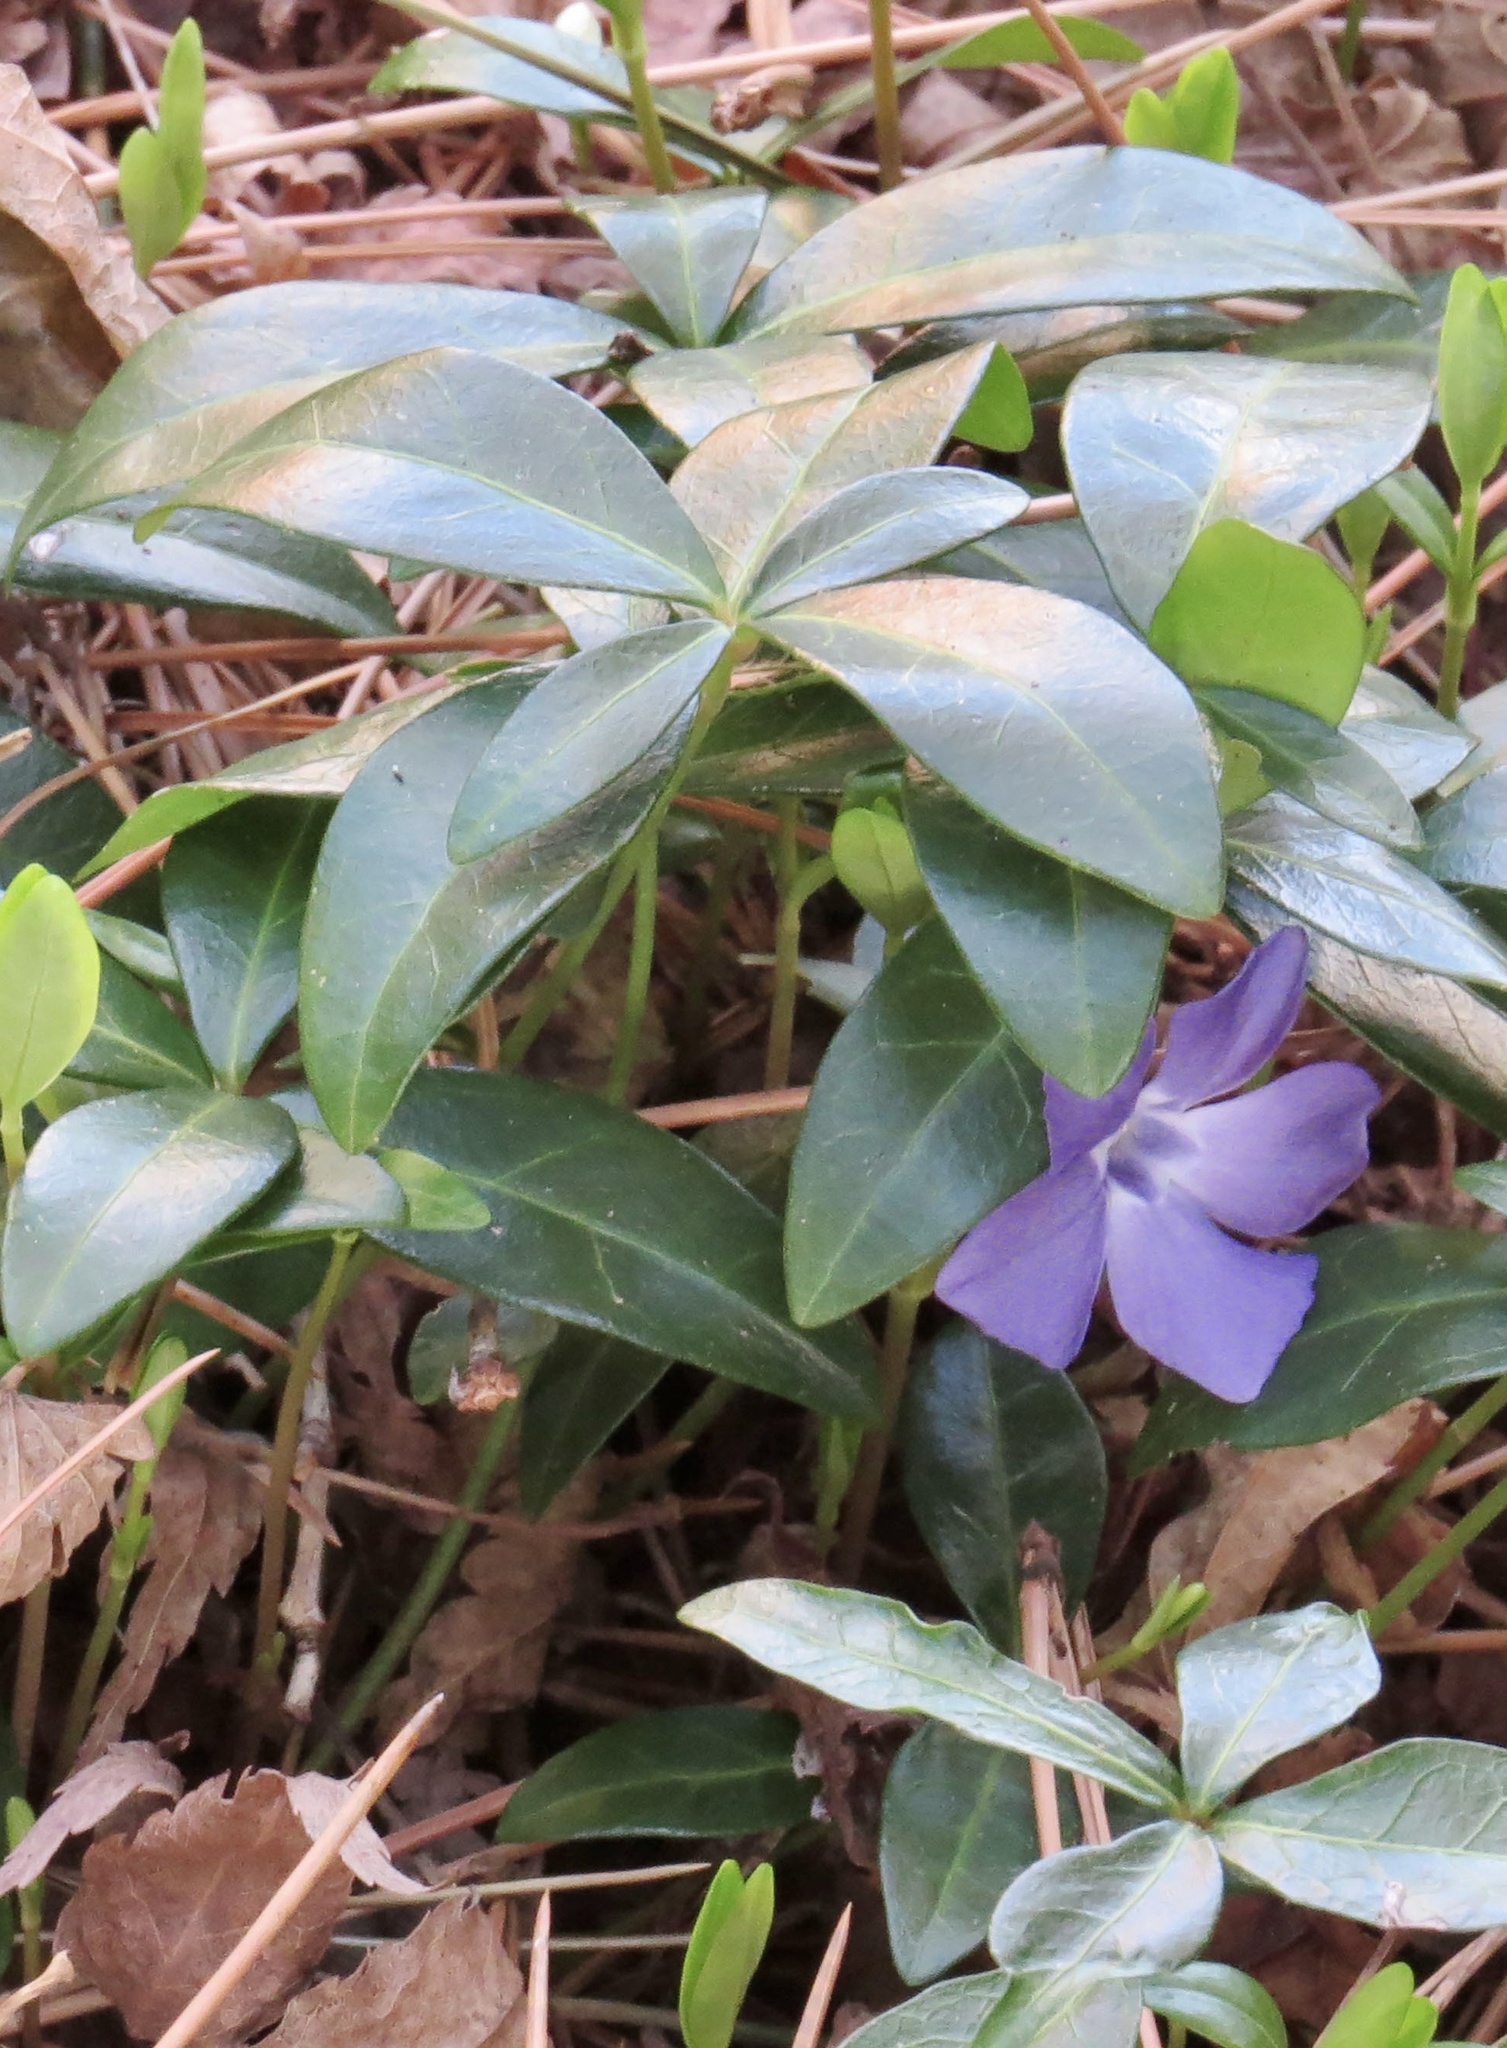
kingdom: Plantae
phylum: Tracheophyta
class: Magnoliopsida
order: Gentianales
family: Apocynaceae
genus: Vinca
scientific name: Vinca minor
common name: Lesser periwinkle
